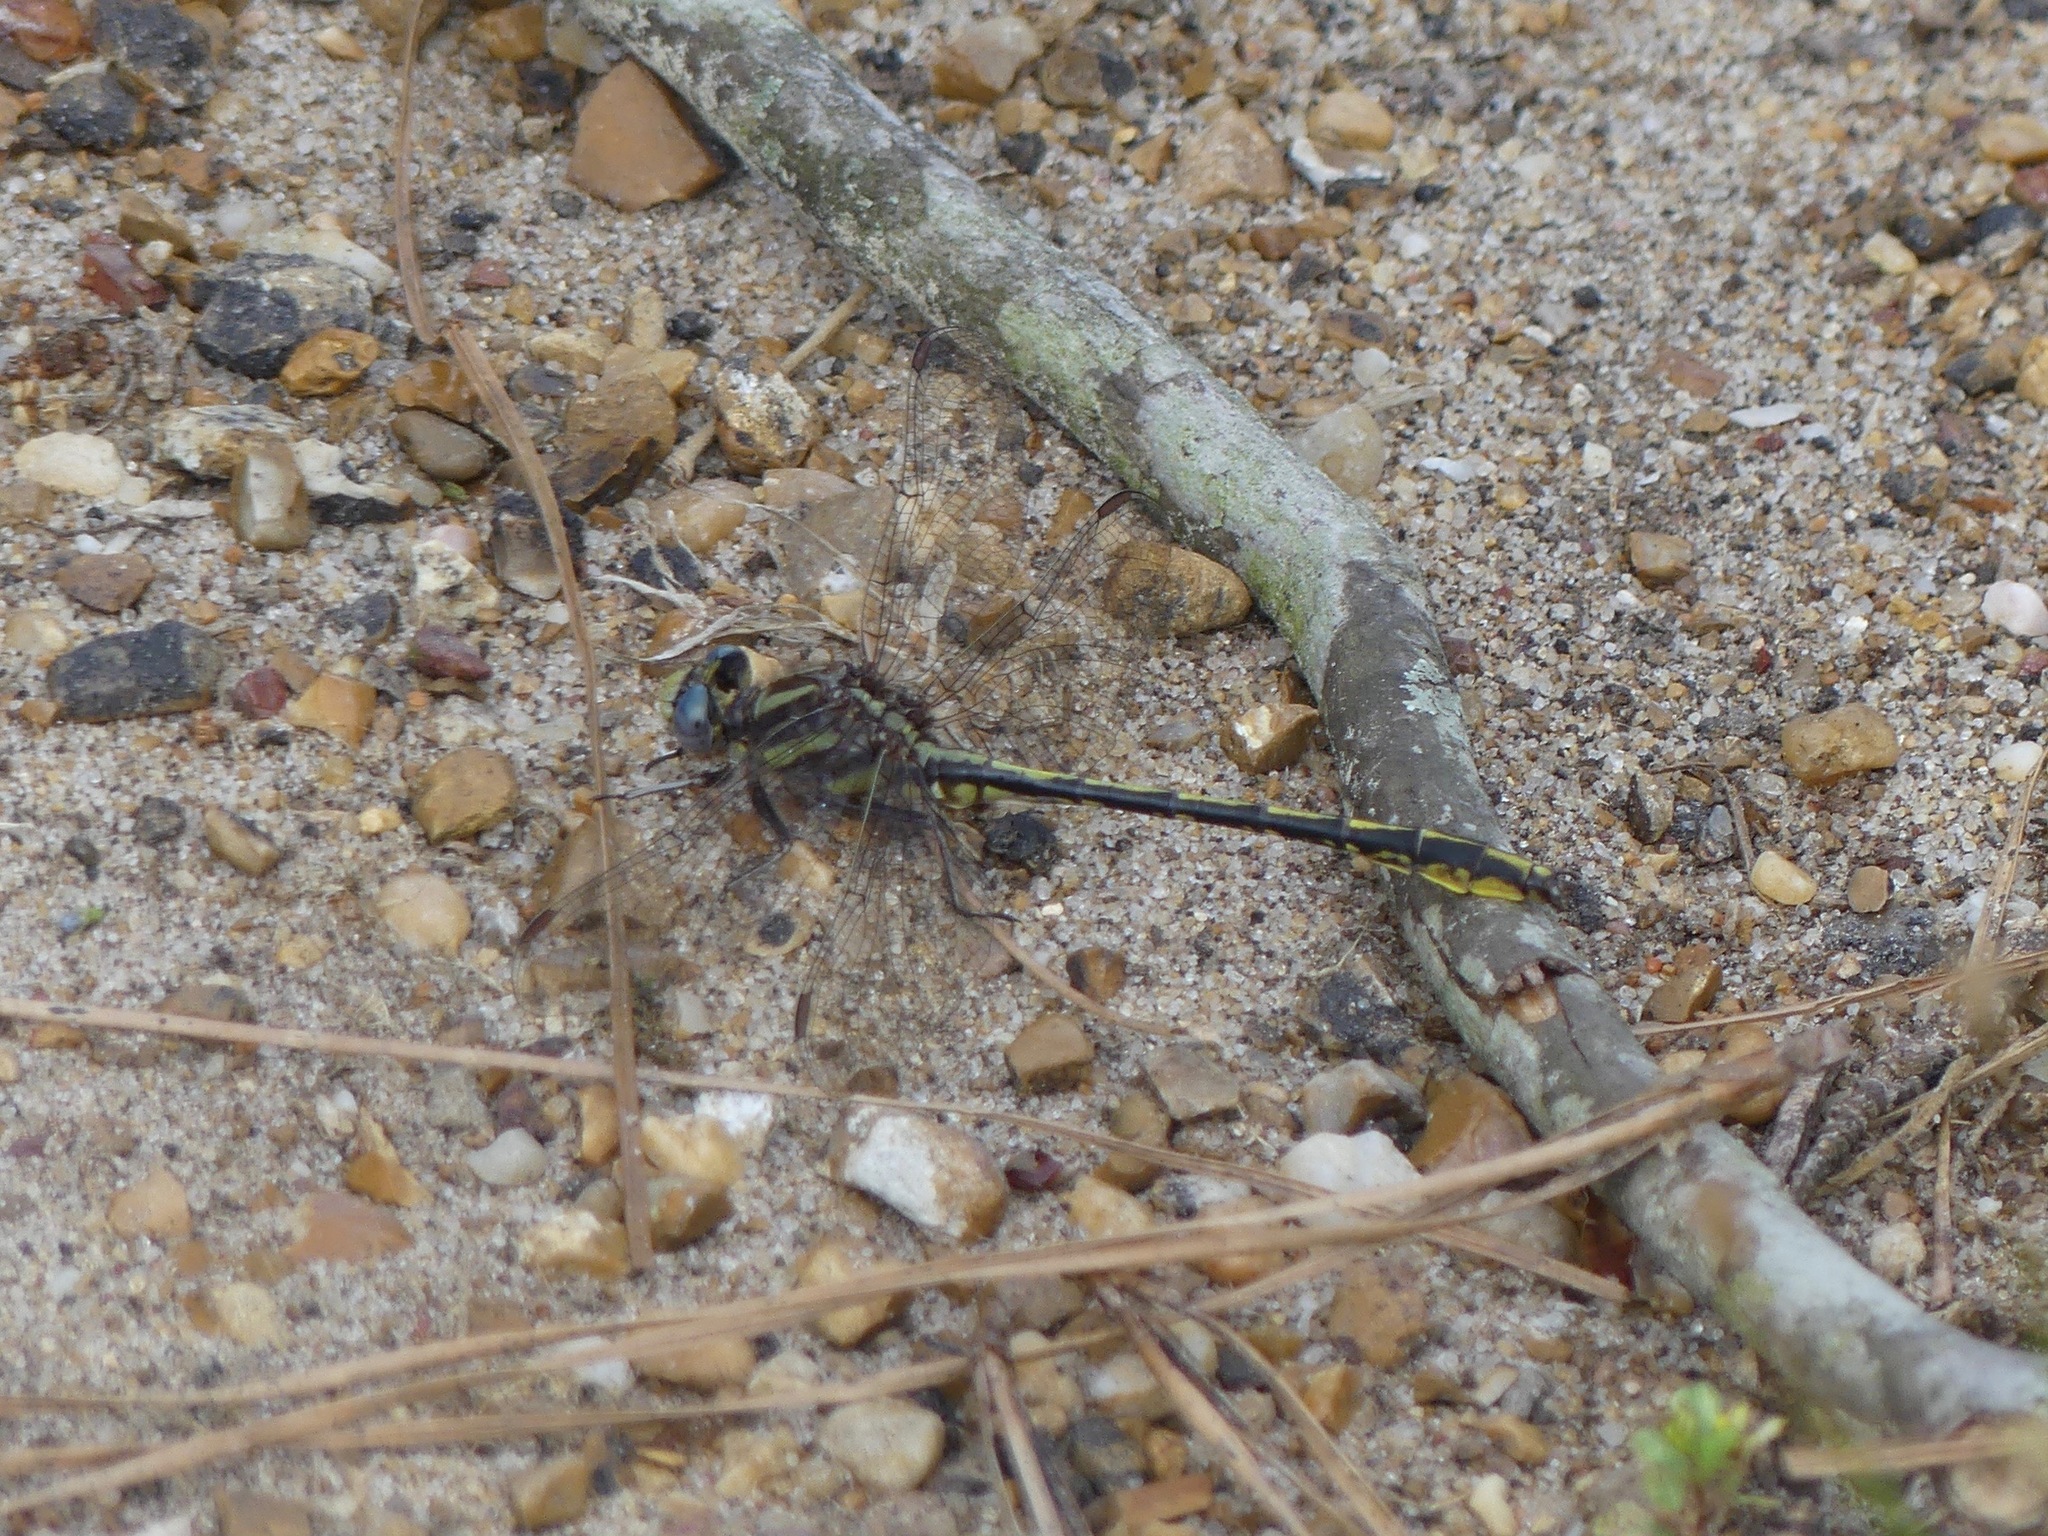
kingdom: Animalia
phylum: Arthropoda
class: Insecta
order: Odonata
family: Gomphidae
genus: Phanogomphus
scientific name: Phanogomphus oklahomensis
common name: Oklahoma clubtail
